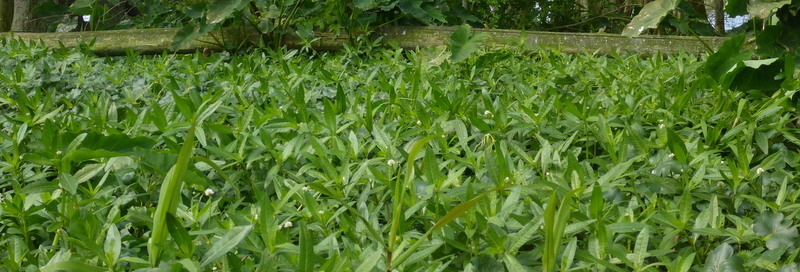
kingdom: Plantae
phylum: Tracheophyta
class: Magnoliopsida
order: Caryophyllales
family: Amaranthaceae
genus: Alternanthera
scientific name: Alternanthera philoxeroides
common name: Alligatorweed
